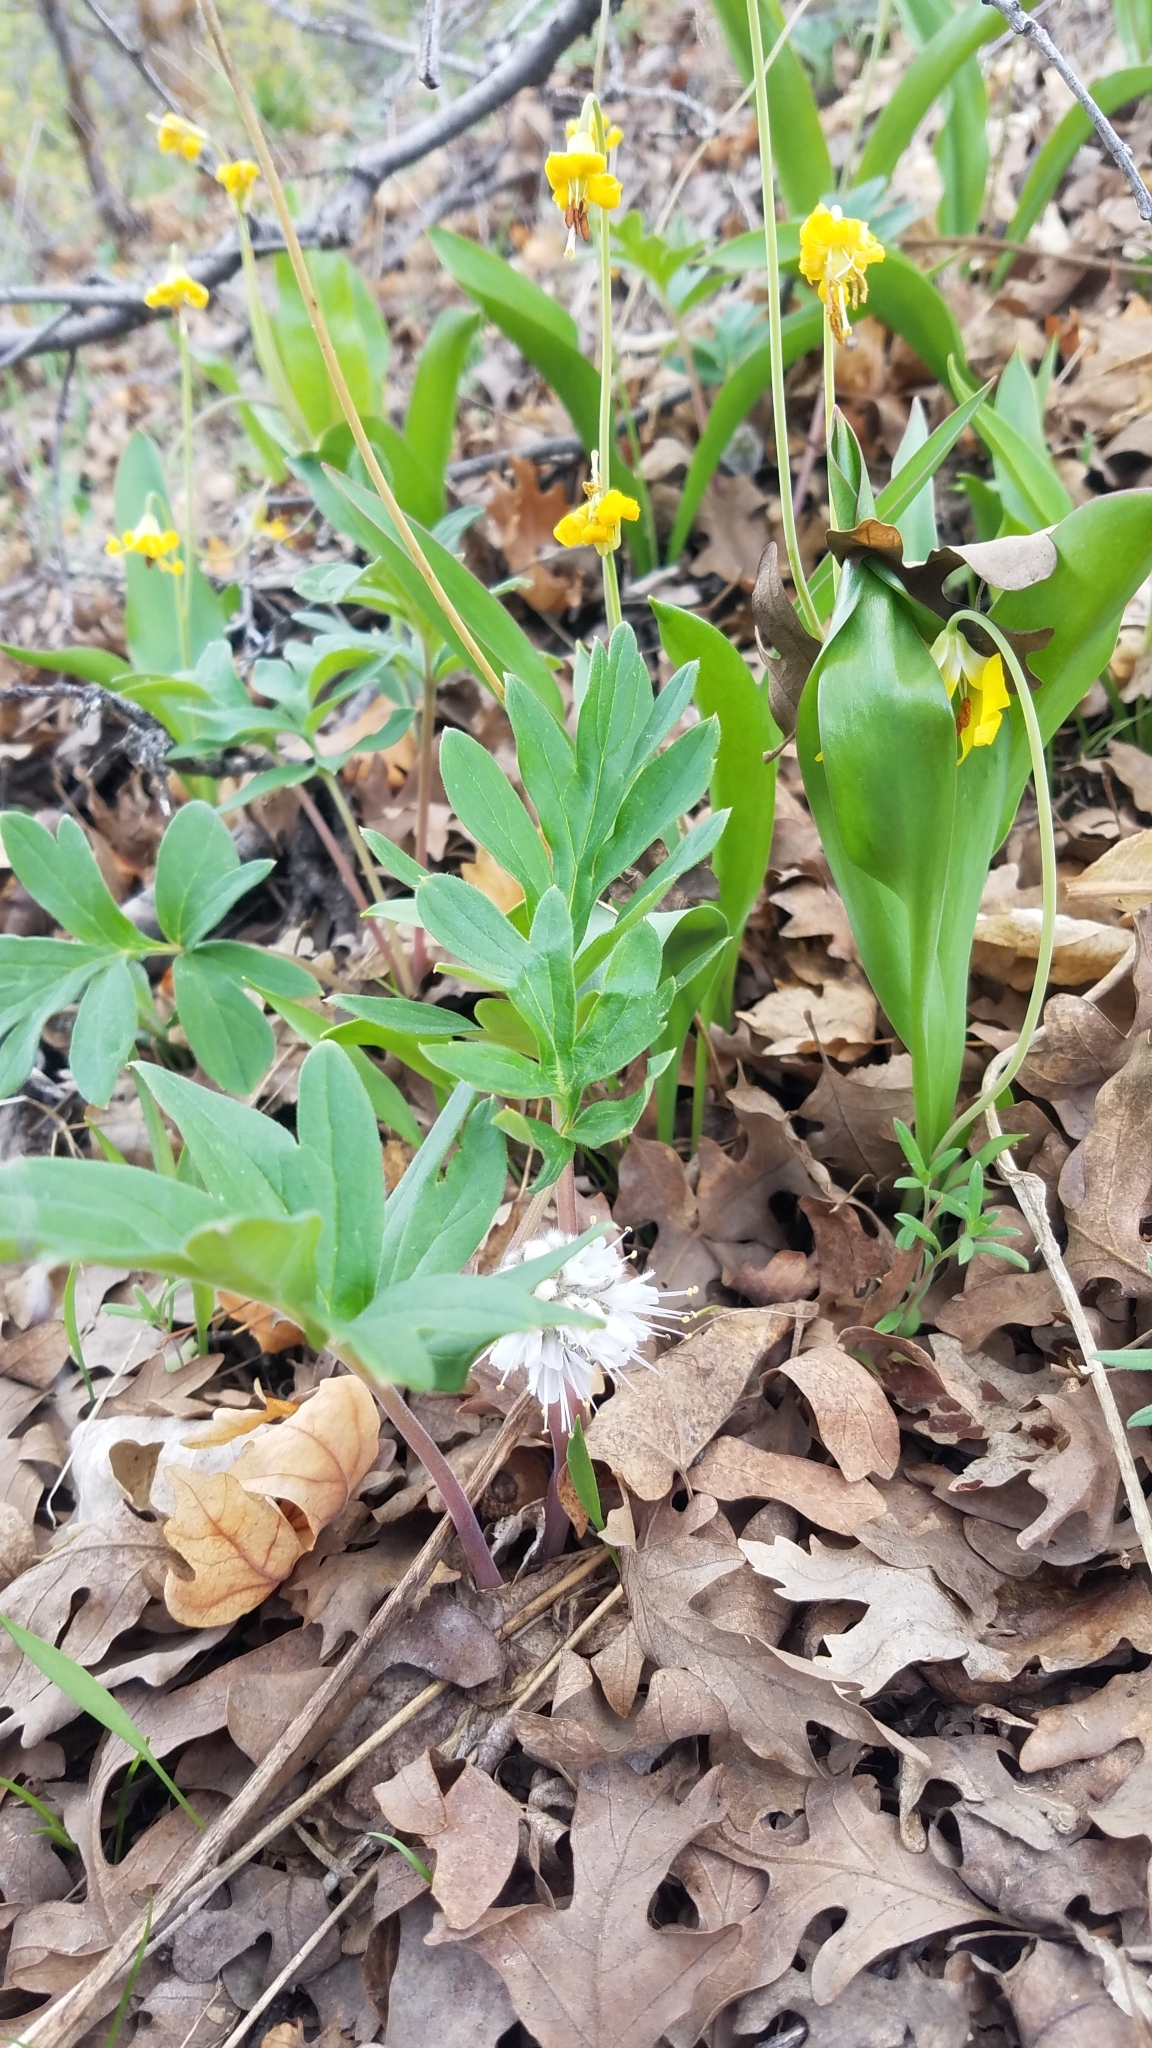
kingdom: Plantae
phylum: Tracheophyta
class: Magnoliopsida
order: Boraginales
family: Hydrophyllaceae
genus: Hydrophyllum
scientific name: Hydrophyllum capitatum
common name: Woollen-breeches
